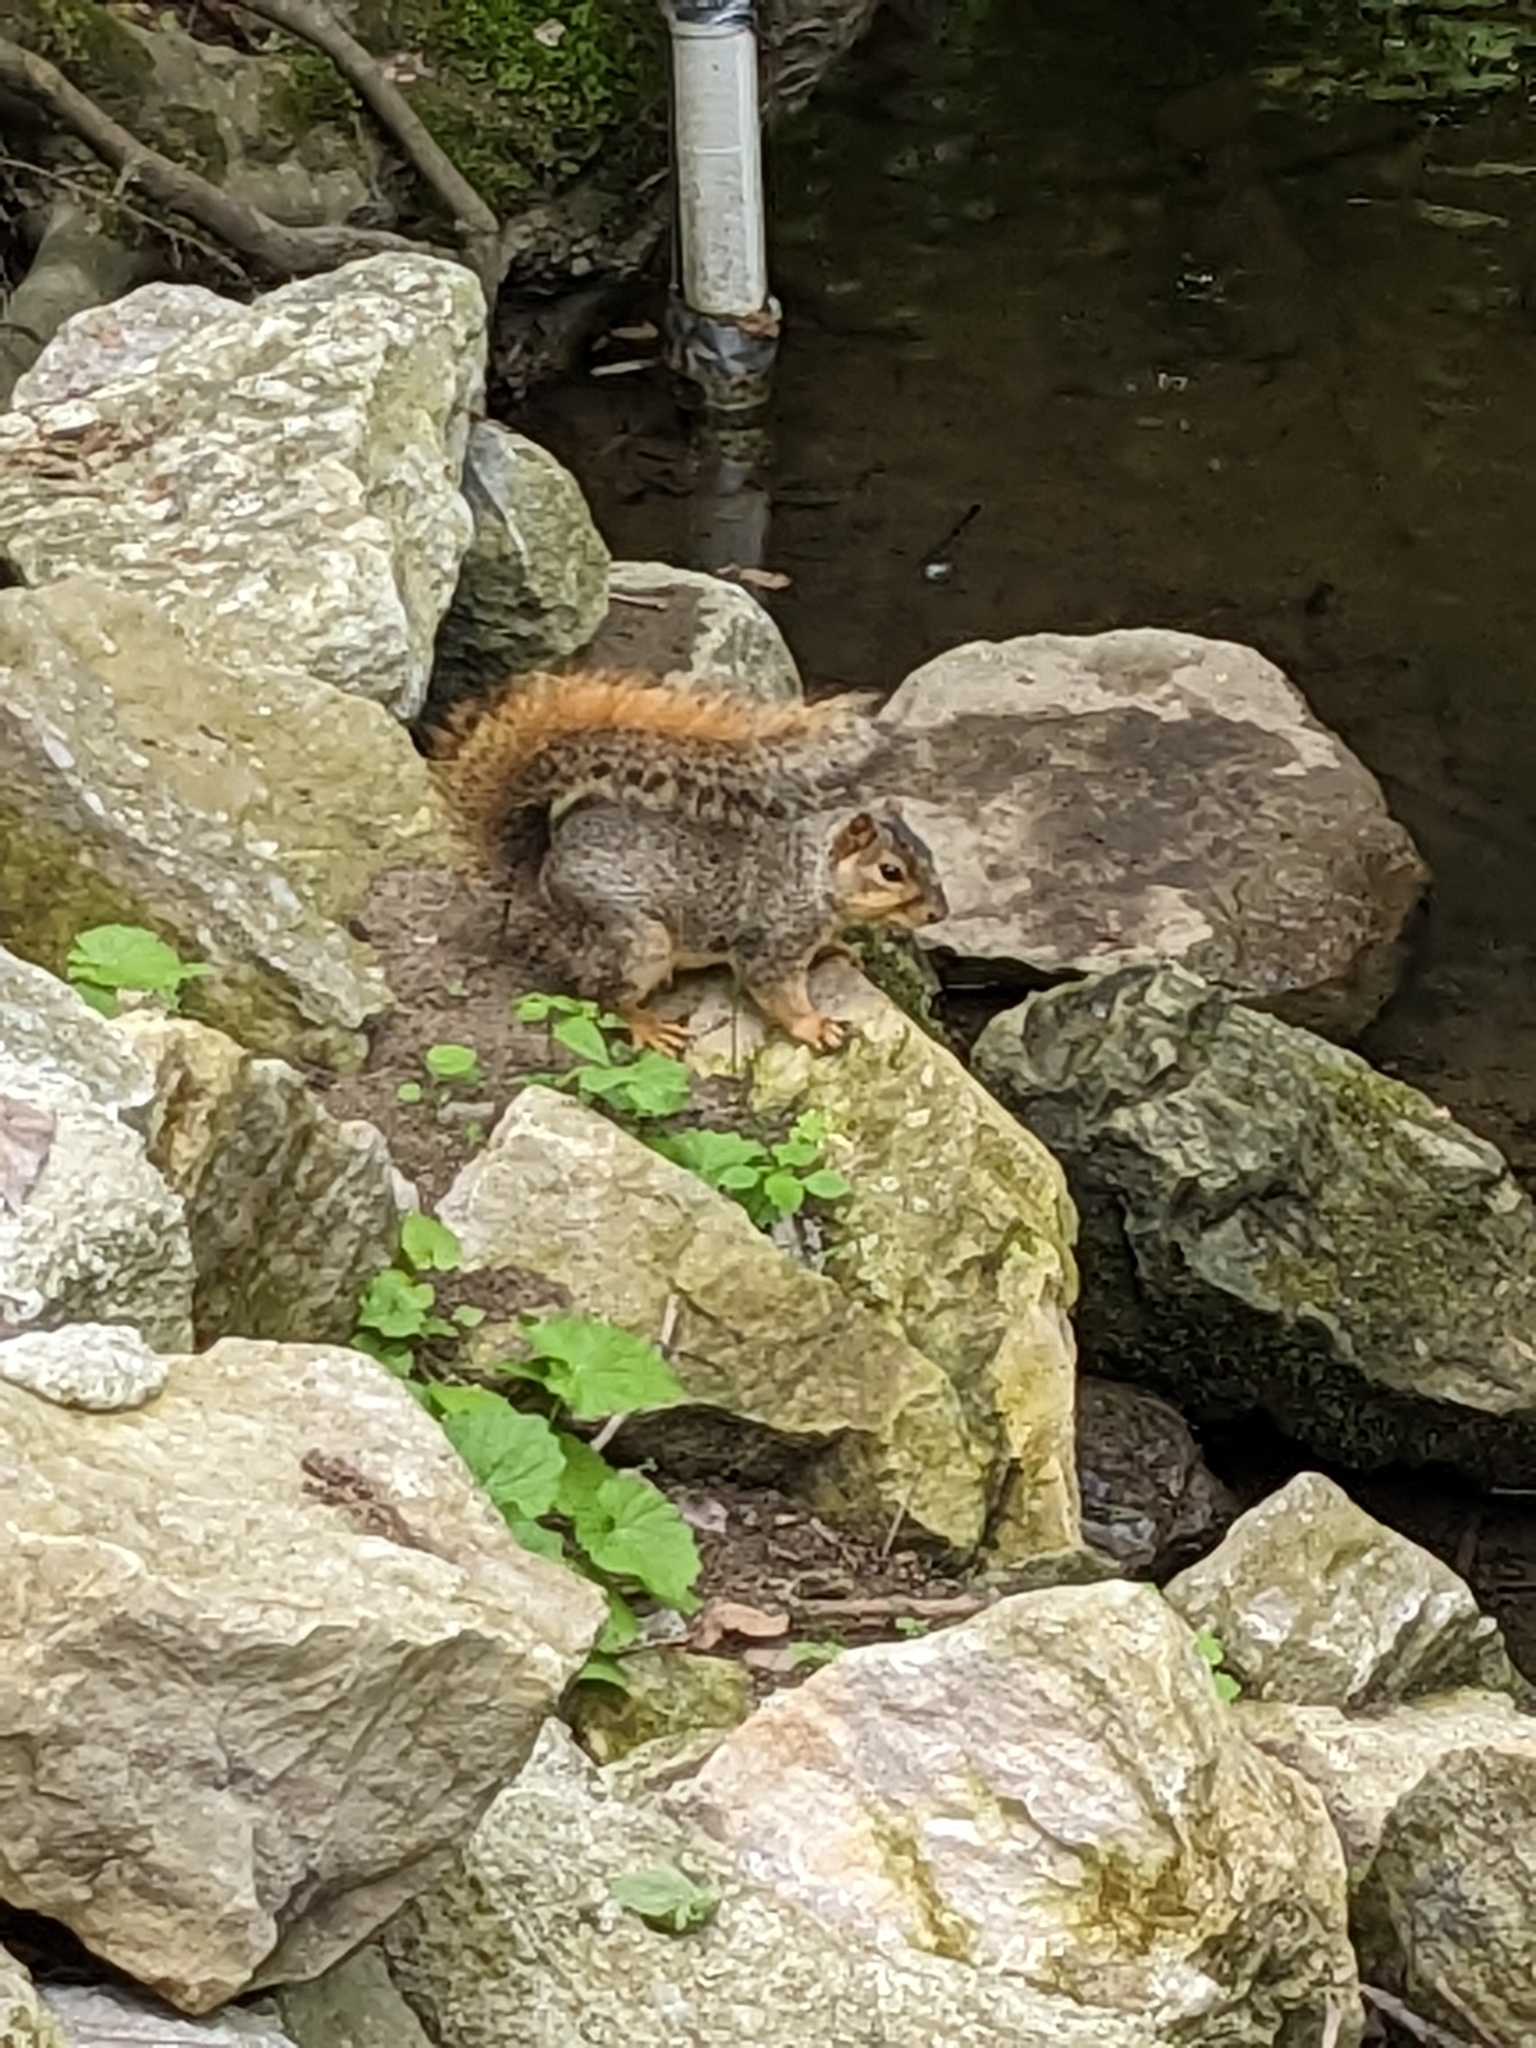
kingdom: Animalia
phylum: Chordata
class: Mammalia
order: Rodentia
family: Sciuridae
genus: Sciurus
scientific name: Sciurus niger
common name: Fox squirrel
